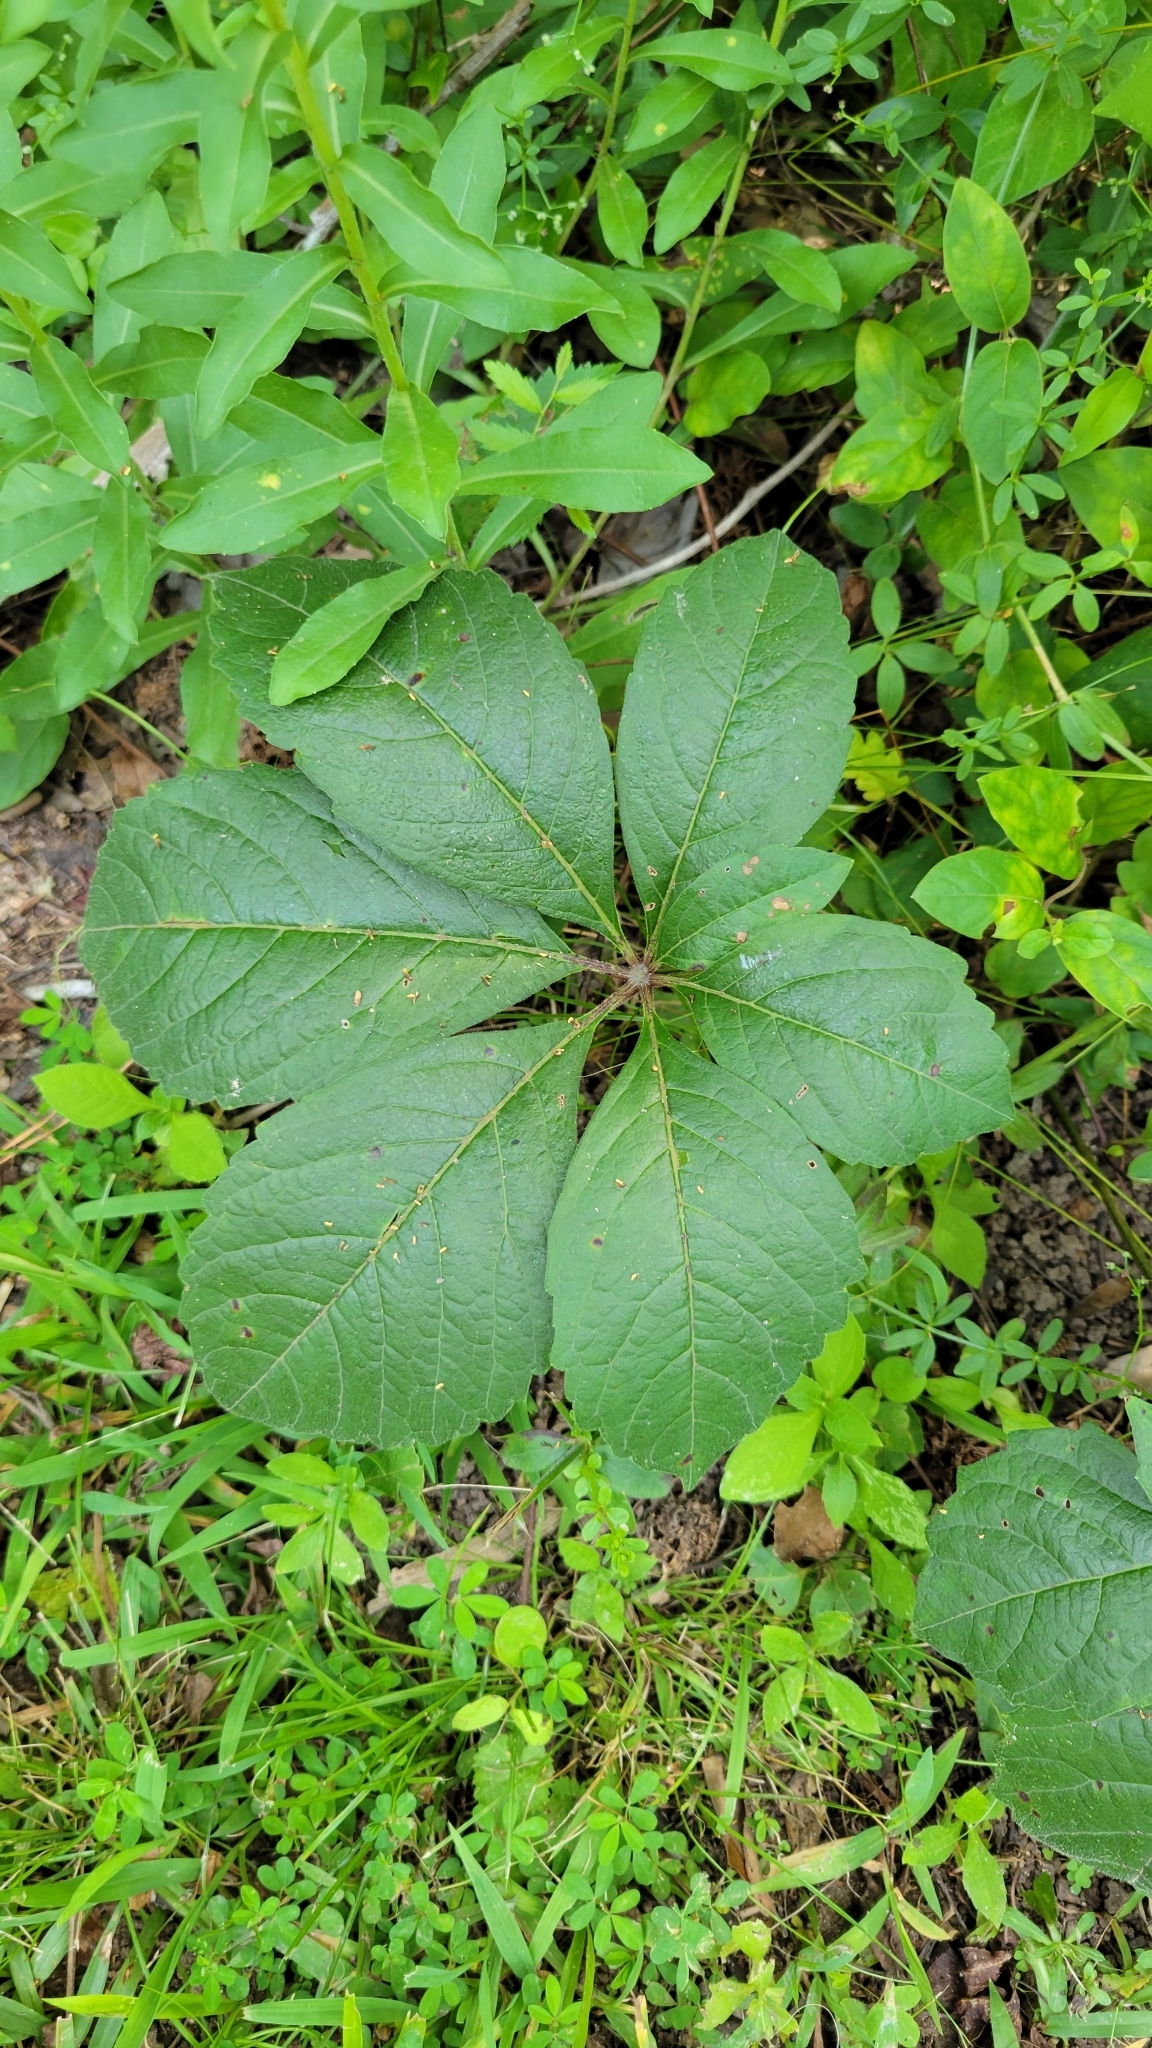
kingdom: Plantae
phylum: Tracheophyta
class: Magnoliopsida
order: Vitales
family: Vitaceae
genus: Parthenocissus
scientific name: Parthenocissus quinquefolia
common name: Virginia-creeper
